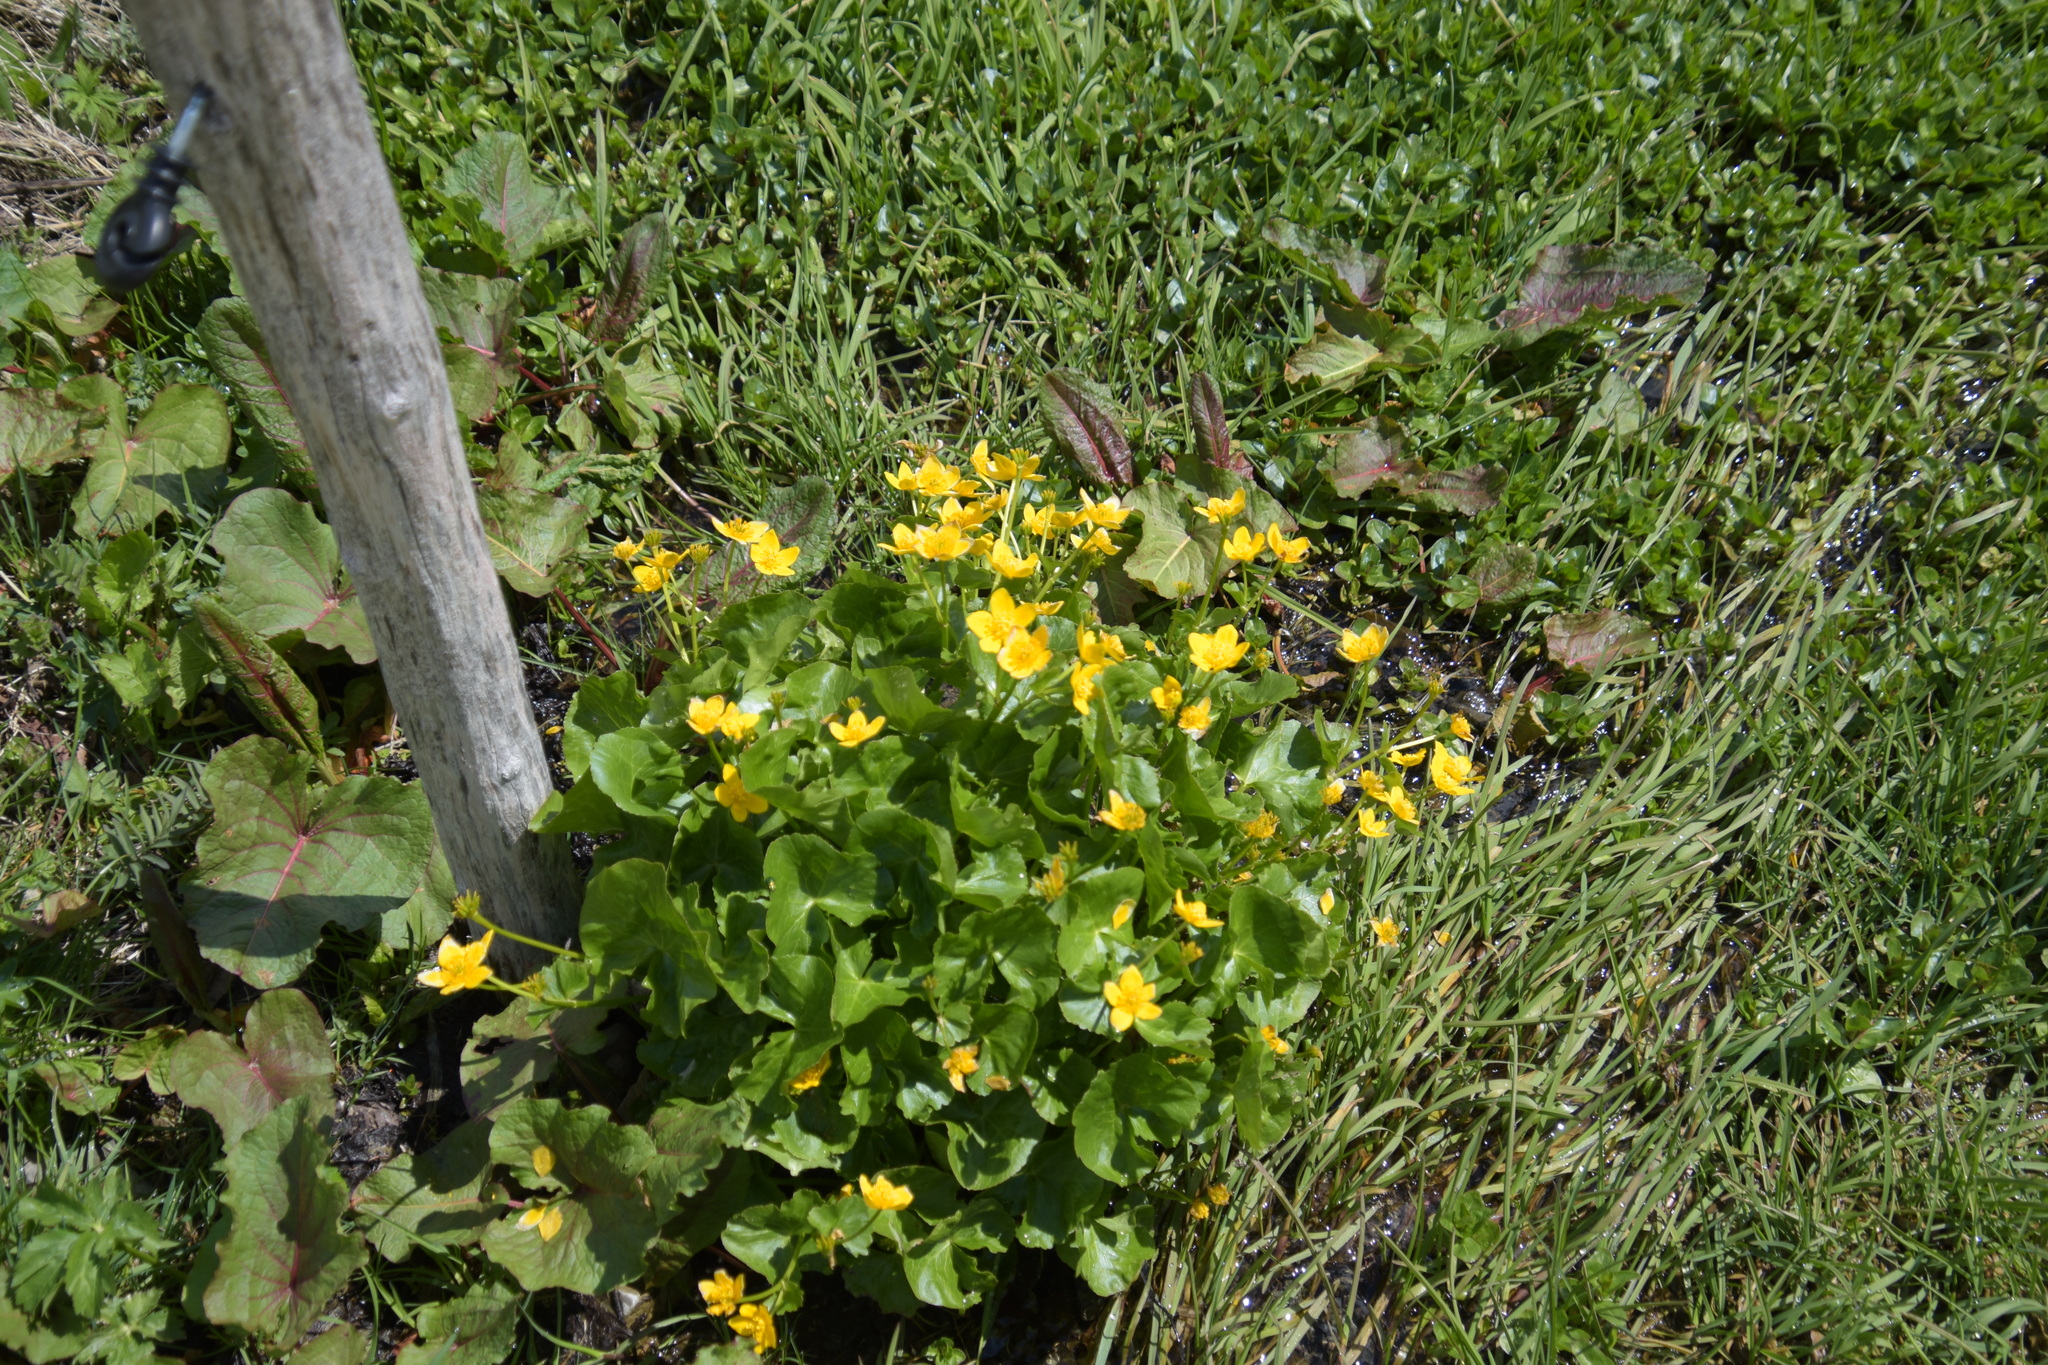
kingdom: Plantae
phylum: Tracheophyta
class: Magnoliopsida
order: Ranunculales
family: Ranunculaceae
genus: Caltha
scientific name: Caltha palustris
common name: Marsh marigold
